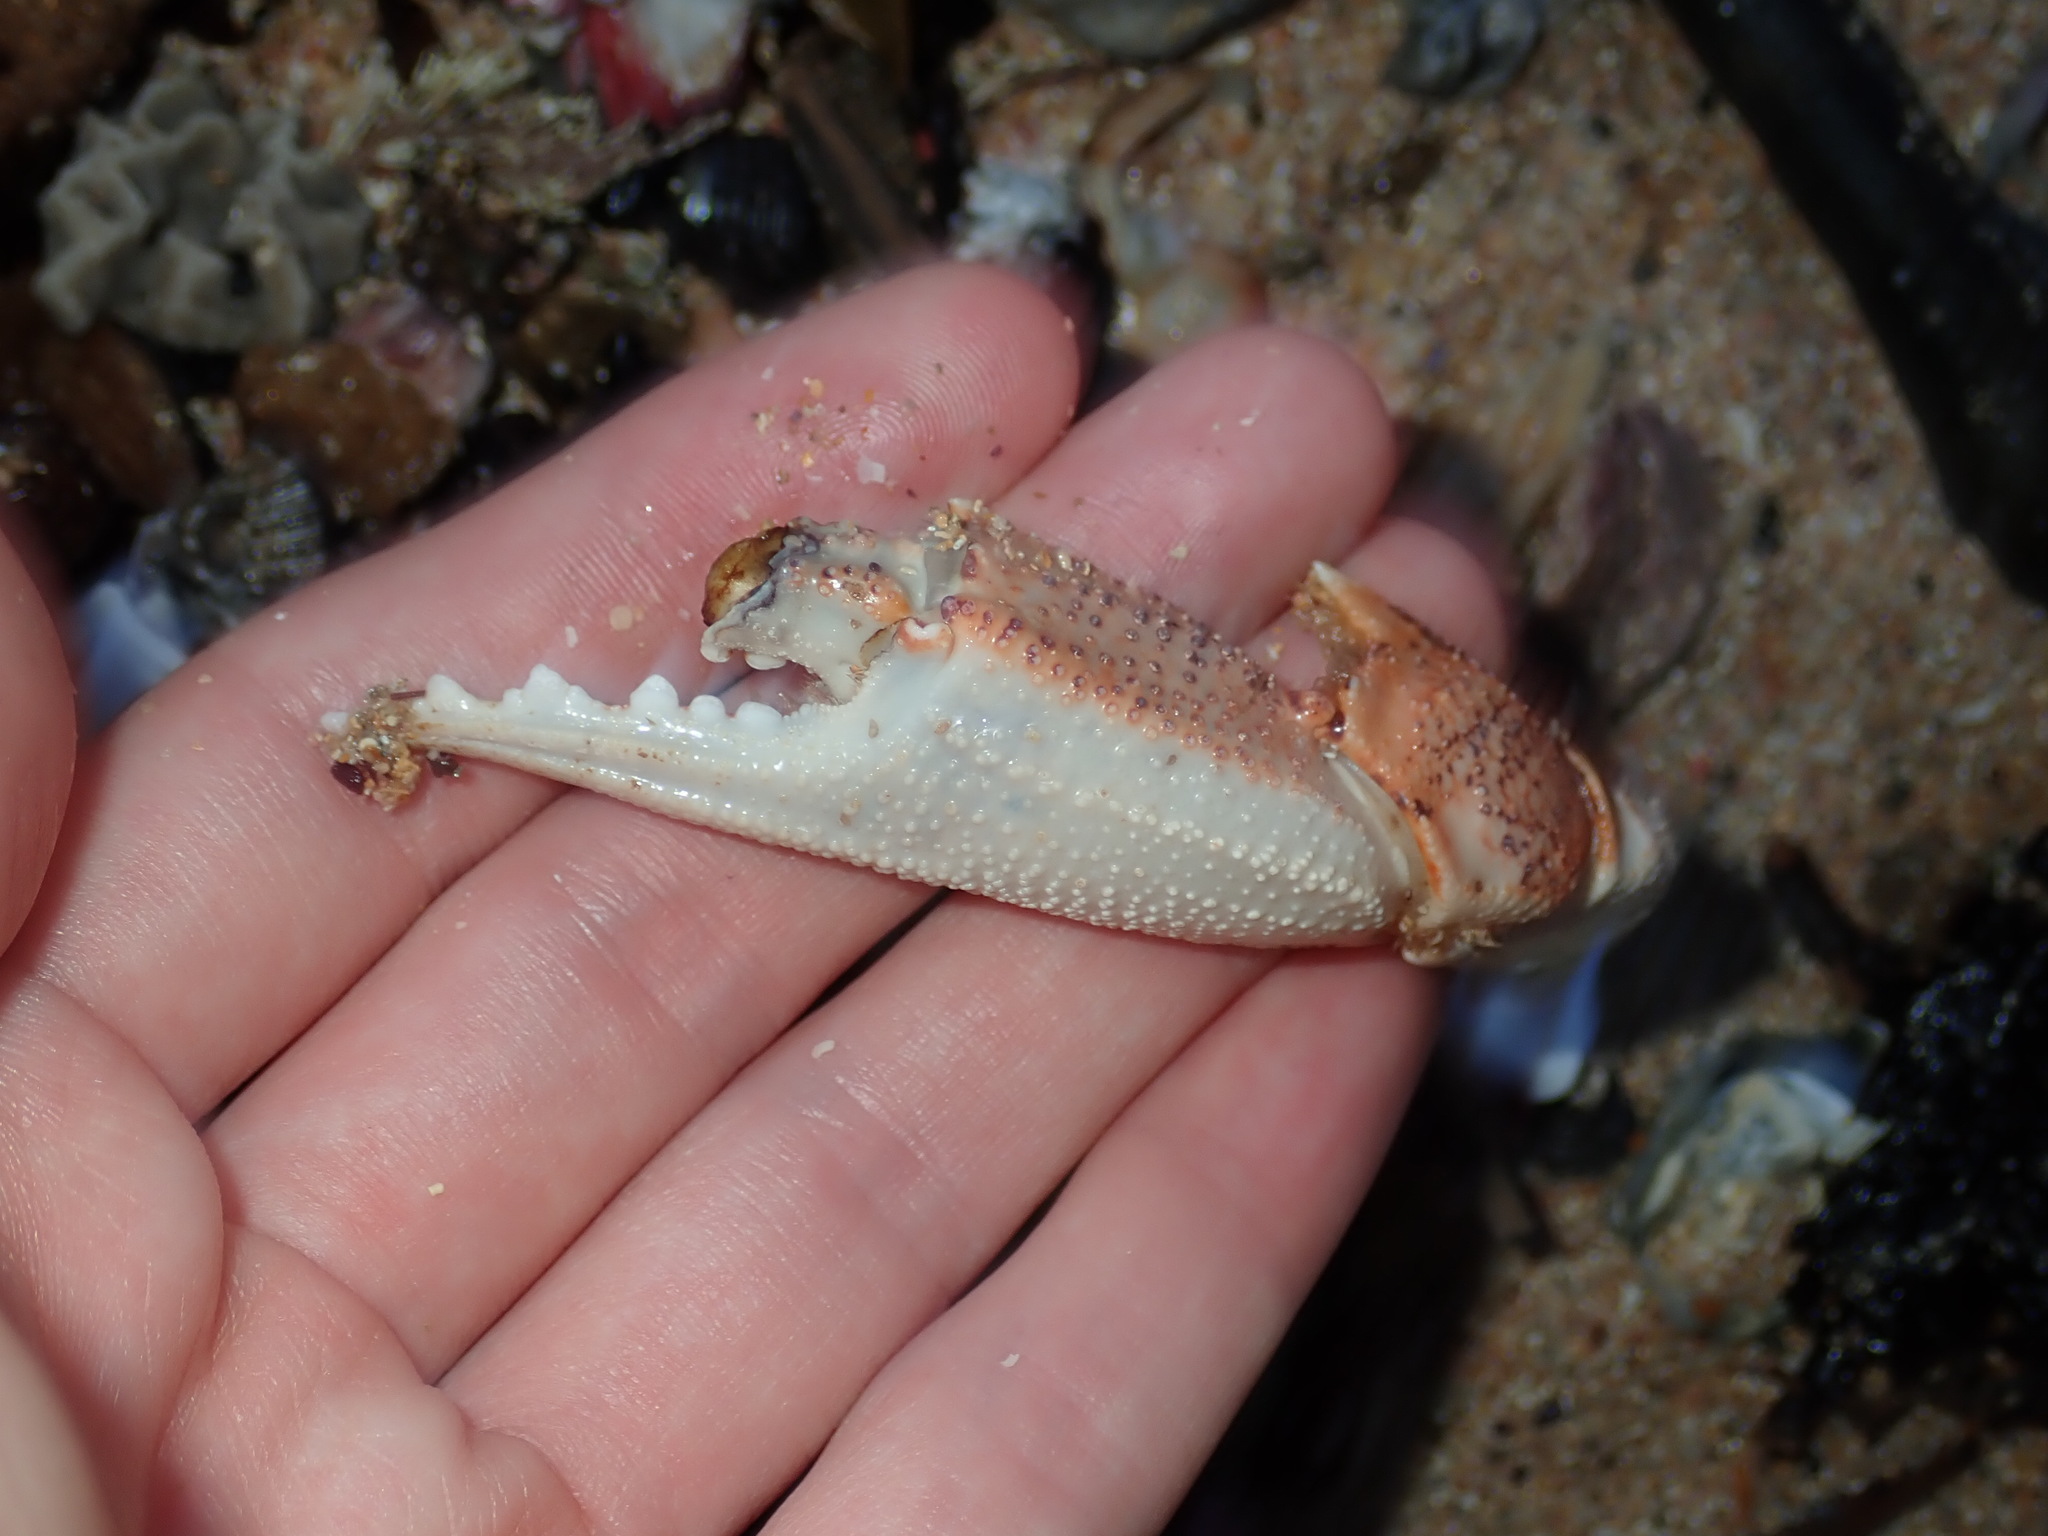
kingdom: Animalia
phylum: Arthropoda
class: Malacostraca
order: Decapoda
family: Ovalipidae
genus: Ovalipes
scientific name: Ovalipes australiensis
